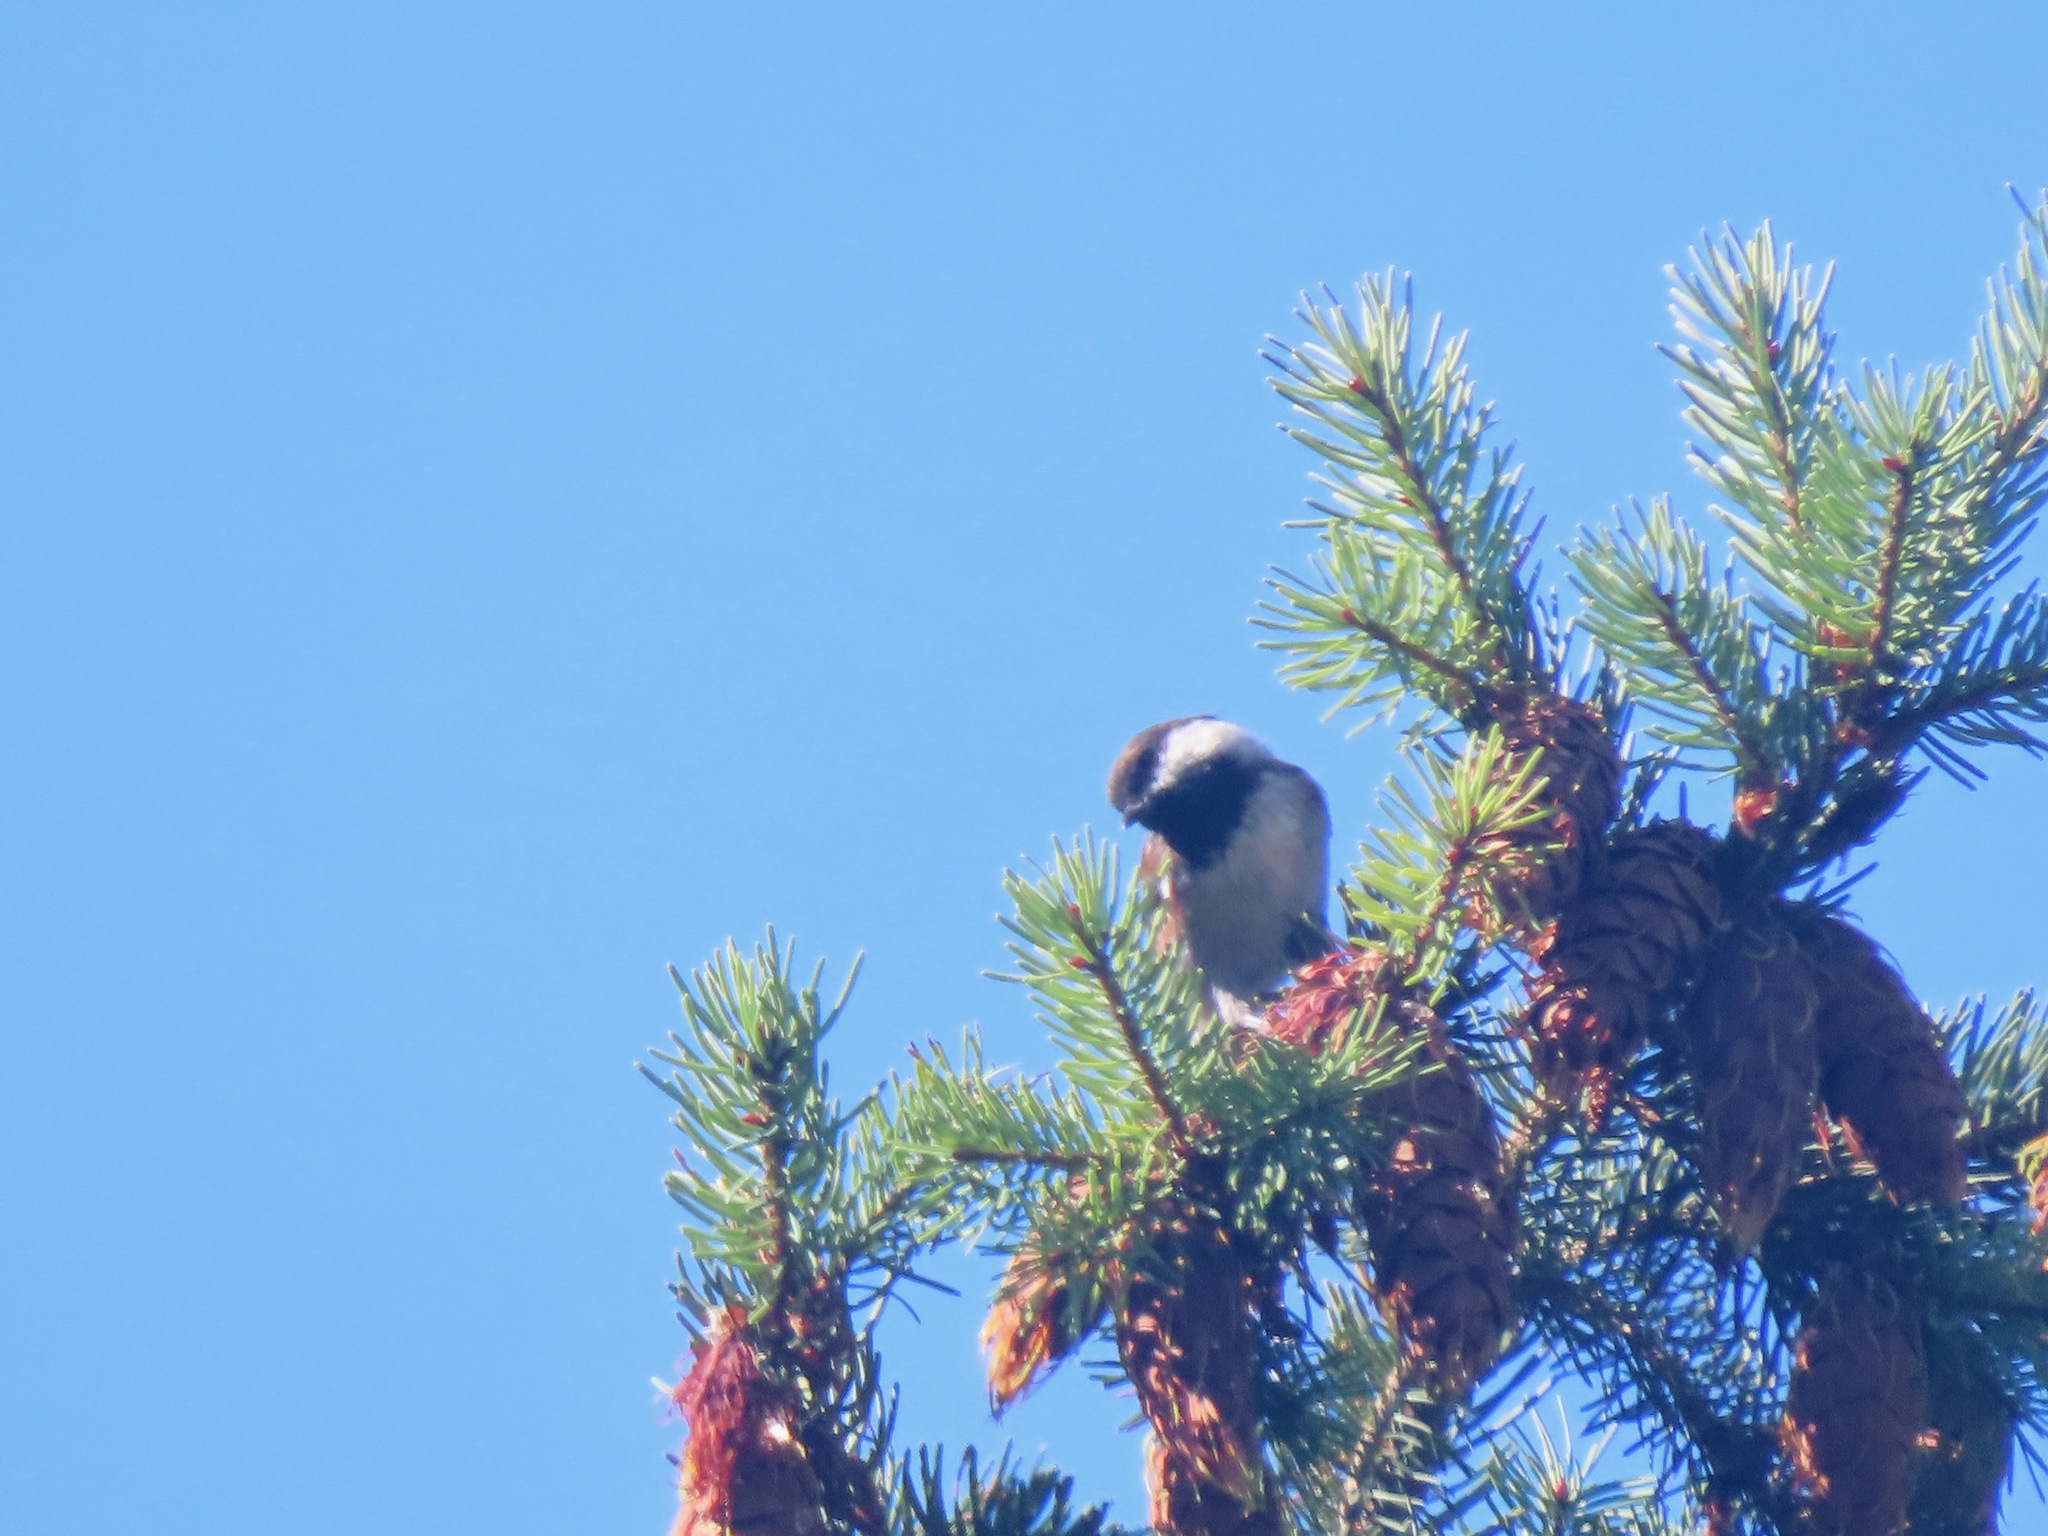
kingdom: Animalia
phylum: Chordata
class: Aves
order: Passeriformes
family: Paridae
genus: Poecile
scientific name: Poecile rufescens
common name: Chestnut-backed chickadee
